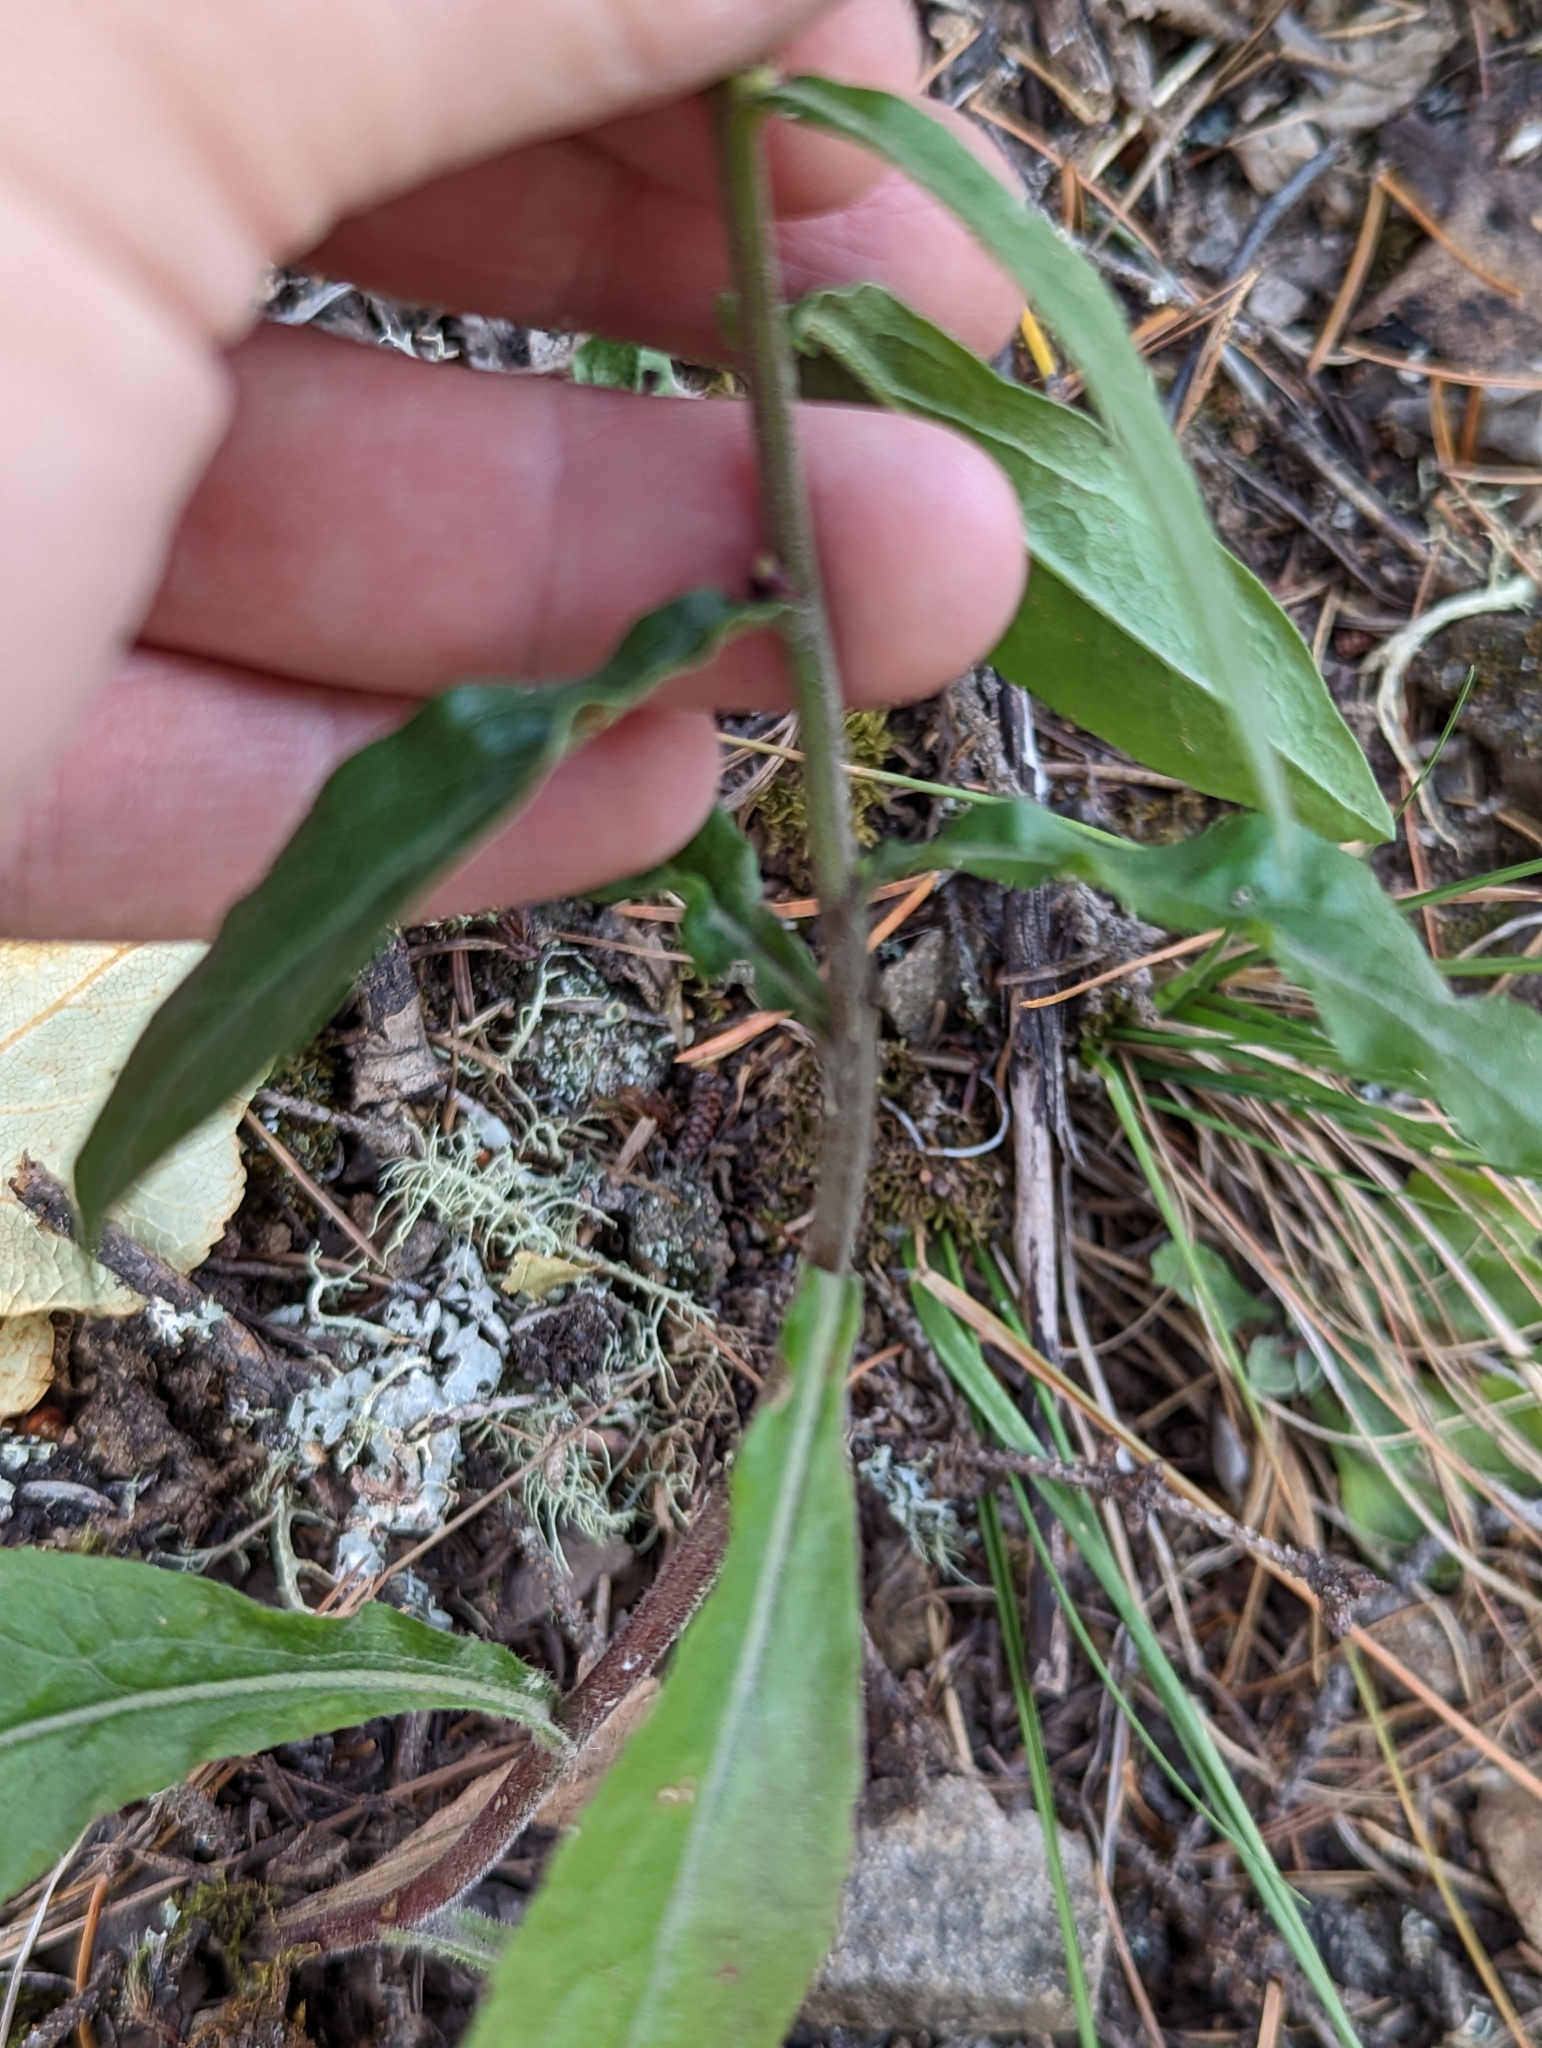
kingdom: Plantae
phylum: Tracheophyta
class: Magnoliopsida
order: Asterales
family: Asteraceae
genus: Solidago
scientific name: Solidago hispida
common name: Hairy goldenrod
